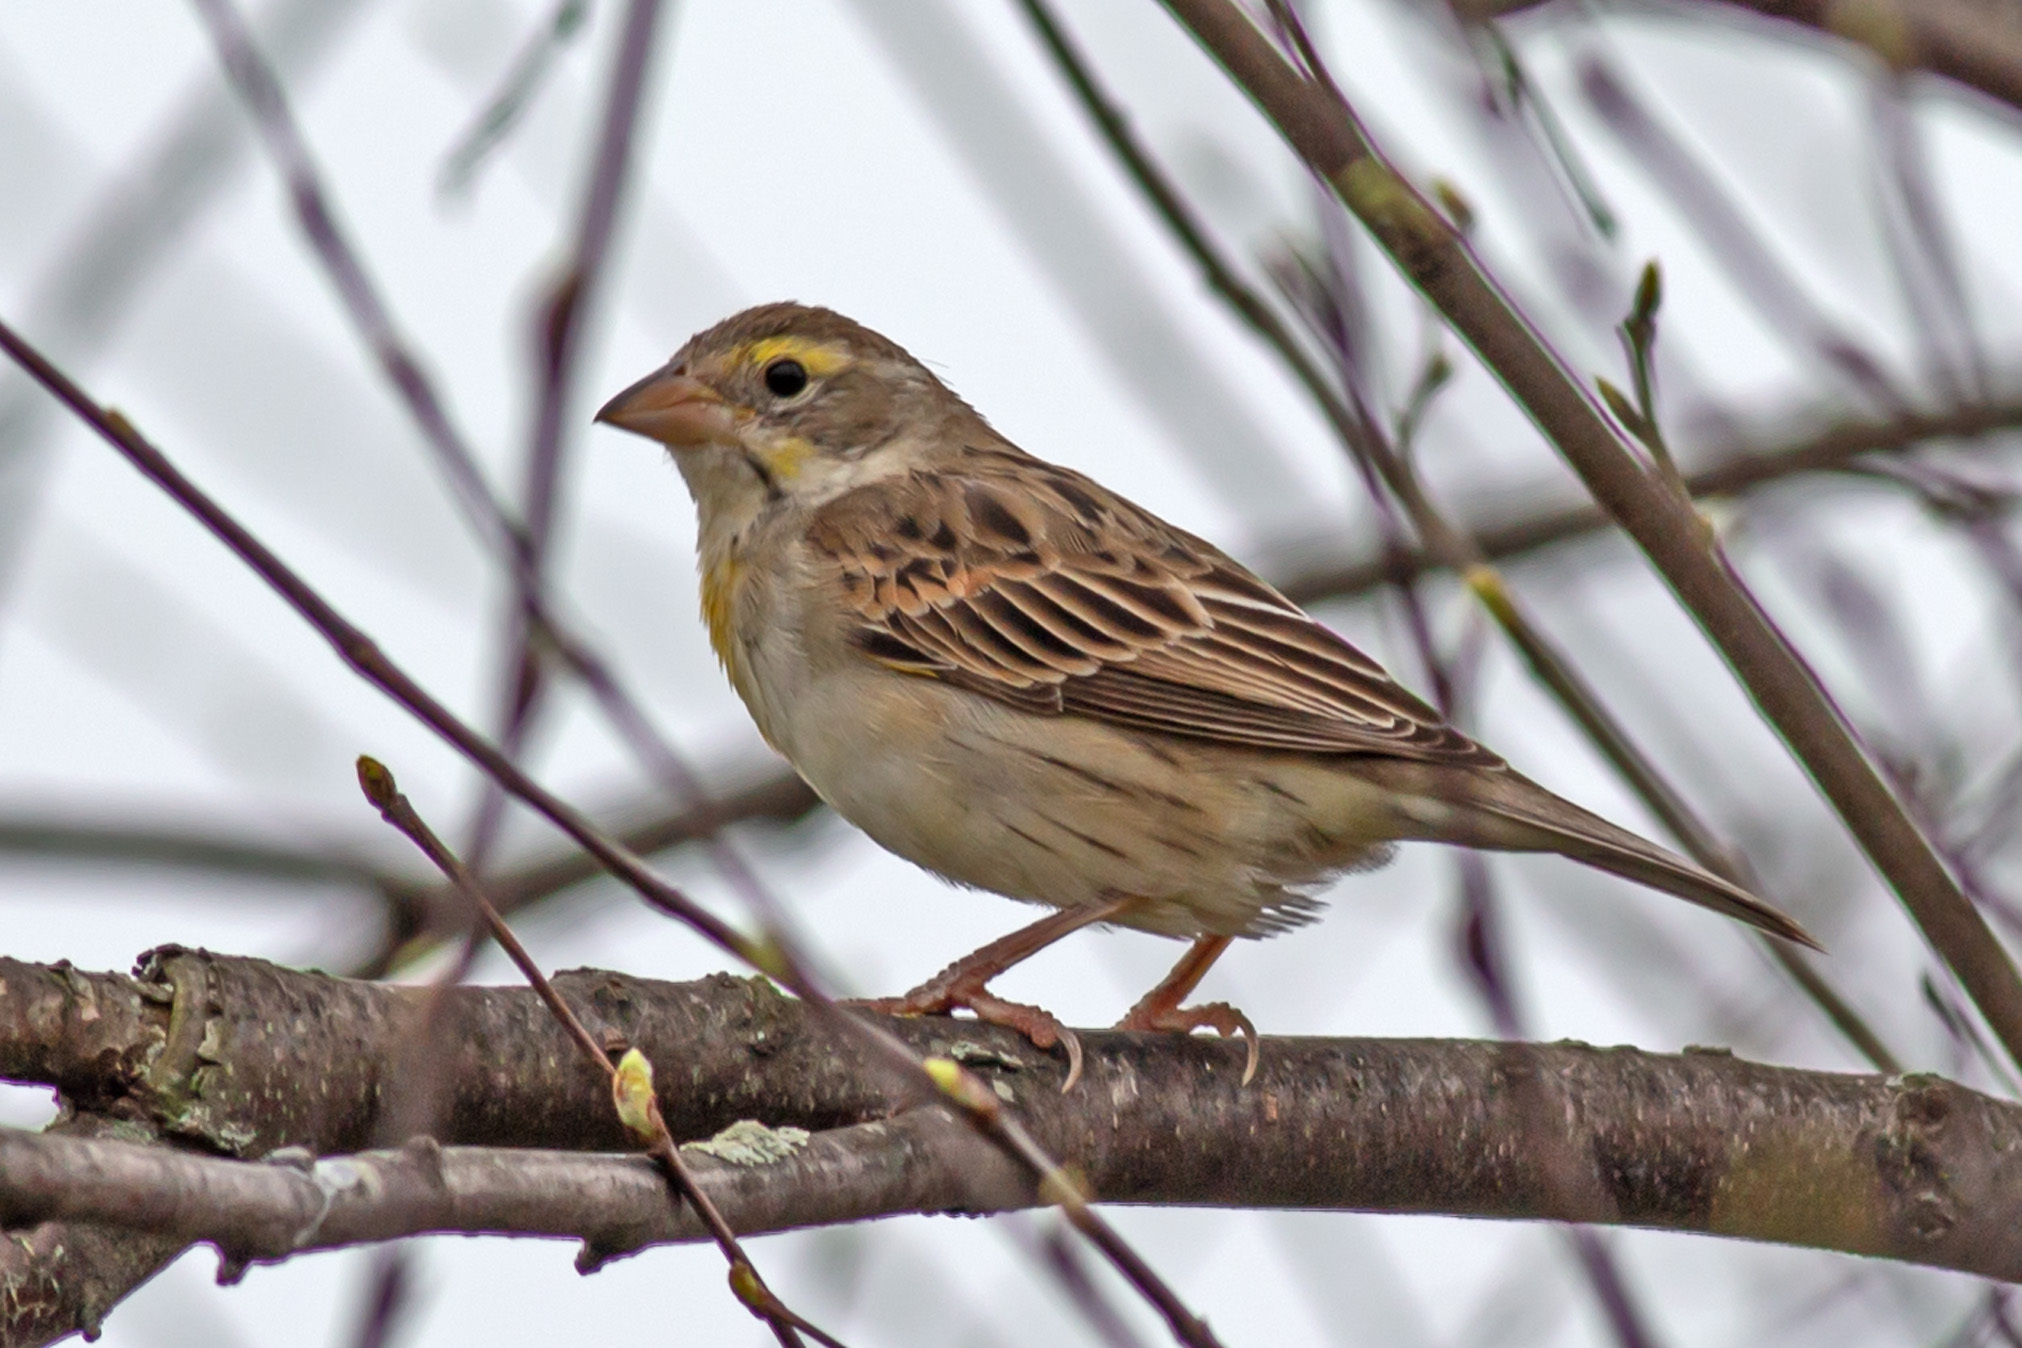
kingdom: Animalia
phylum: Chordata
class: Aves
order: Passeriformes
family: Cardinalidae
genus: Spiza
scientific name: Spiza americana
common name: Dickcissel
